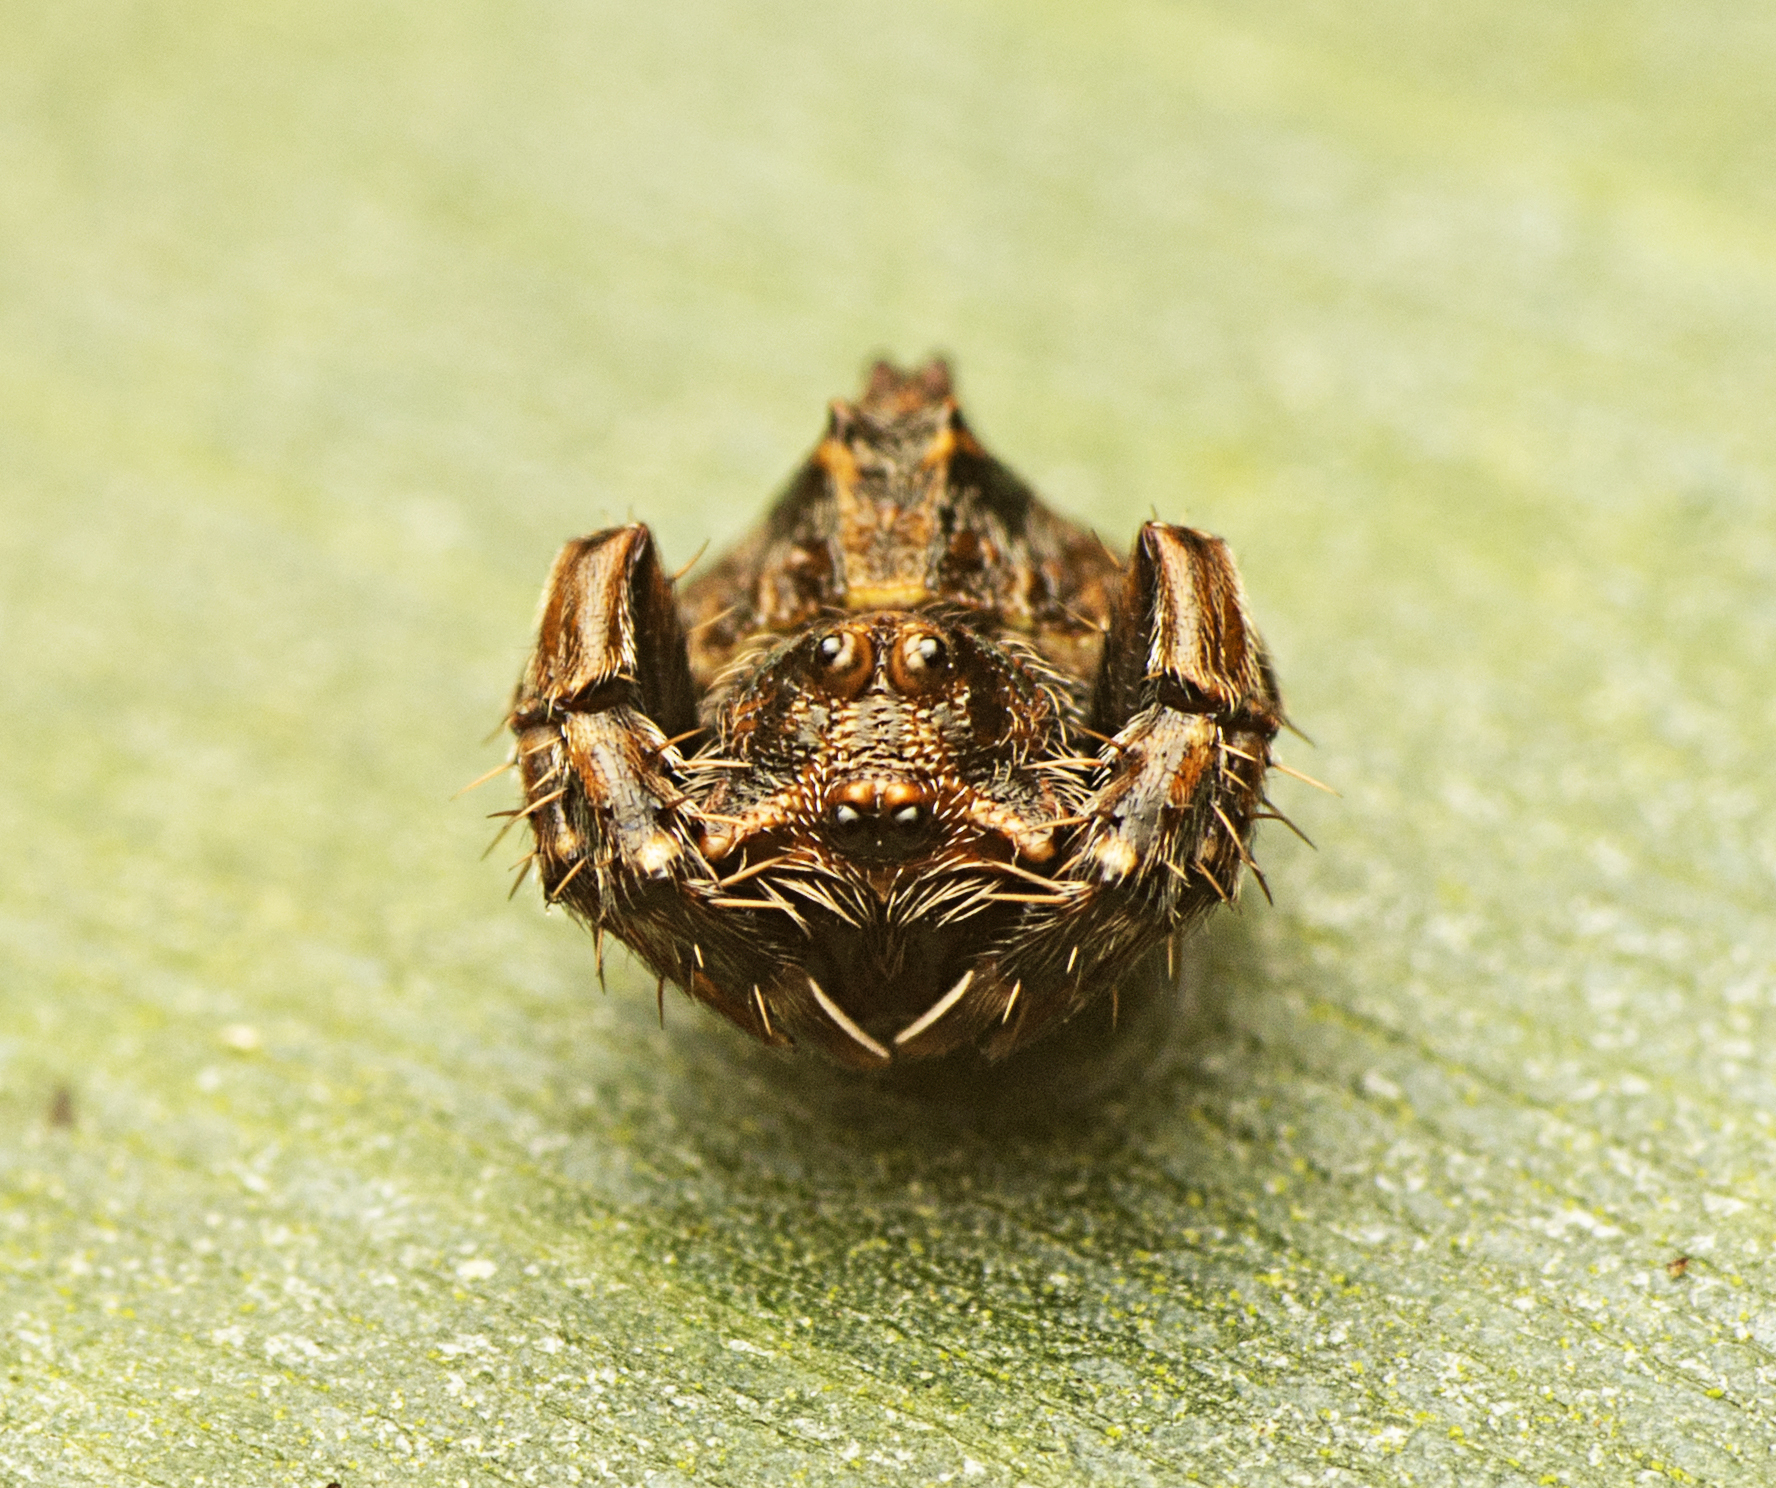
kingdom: Animalia
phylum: Arthropoda
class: Arachnida
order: Araneae
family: Arkyidae
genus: Arkys
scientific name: Arkys tuberculatus
